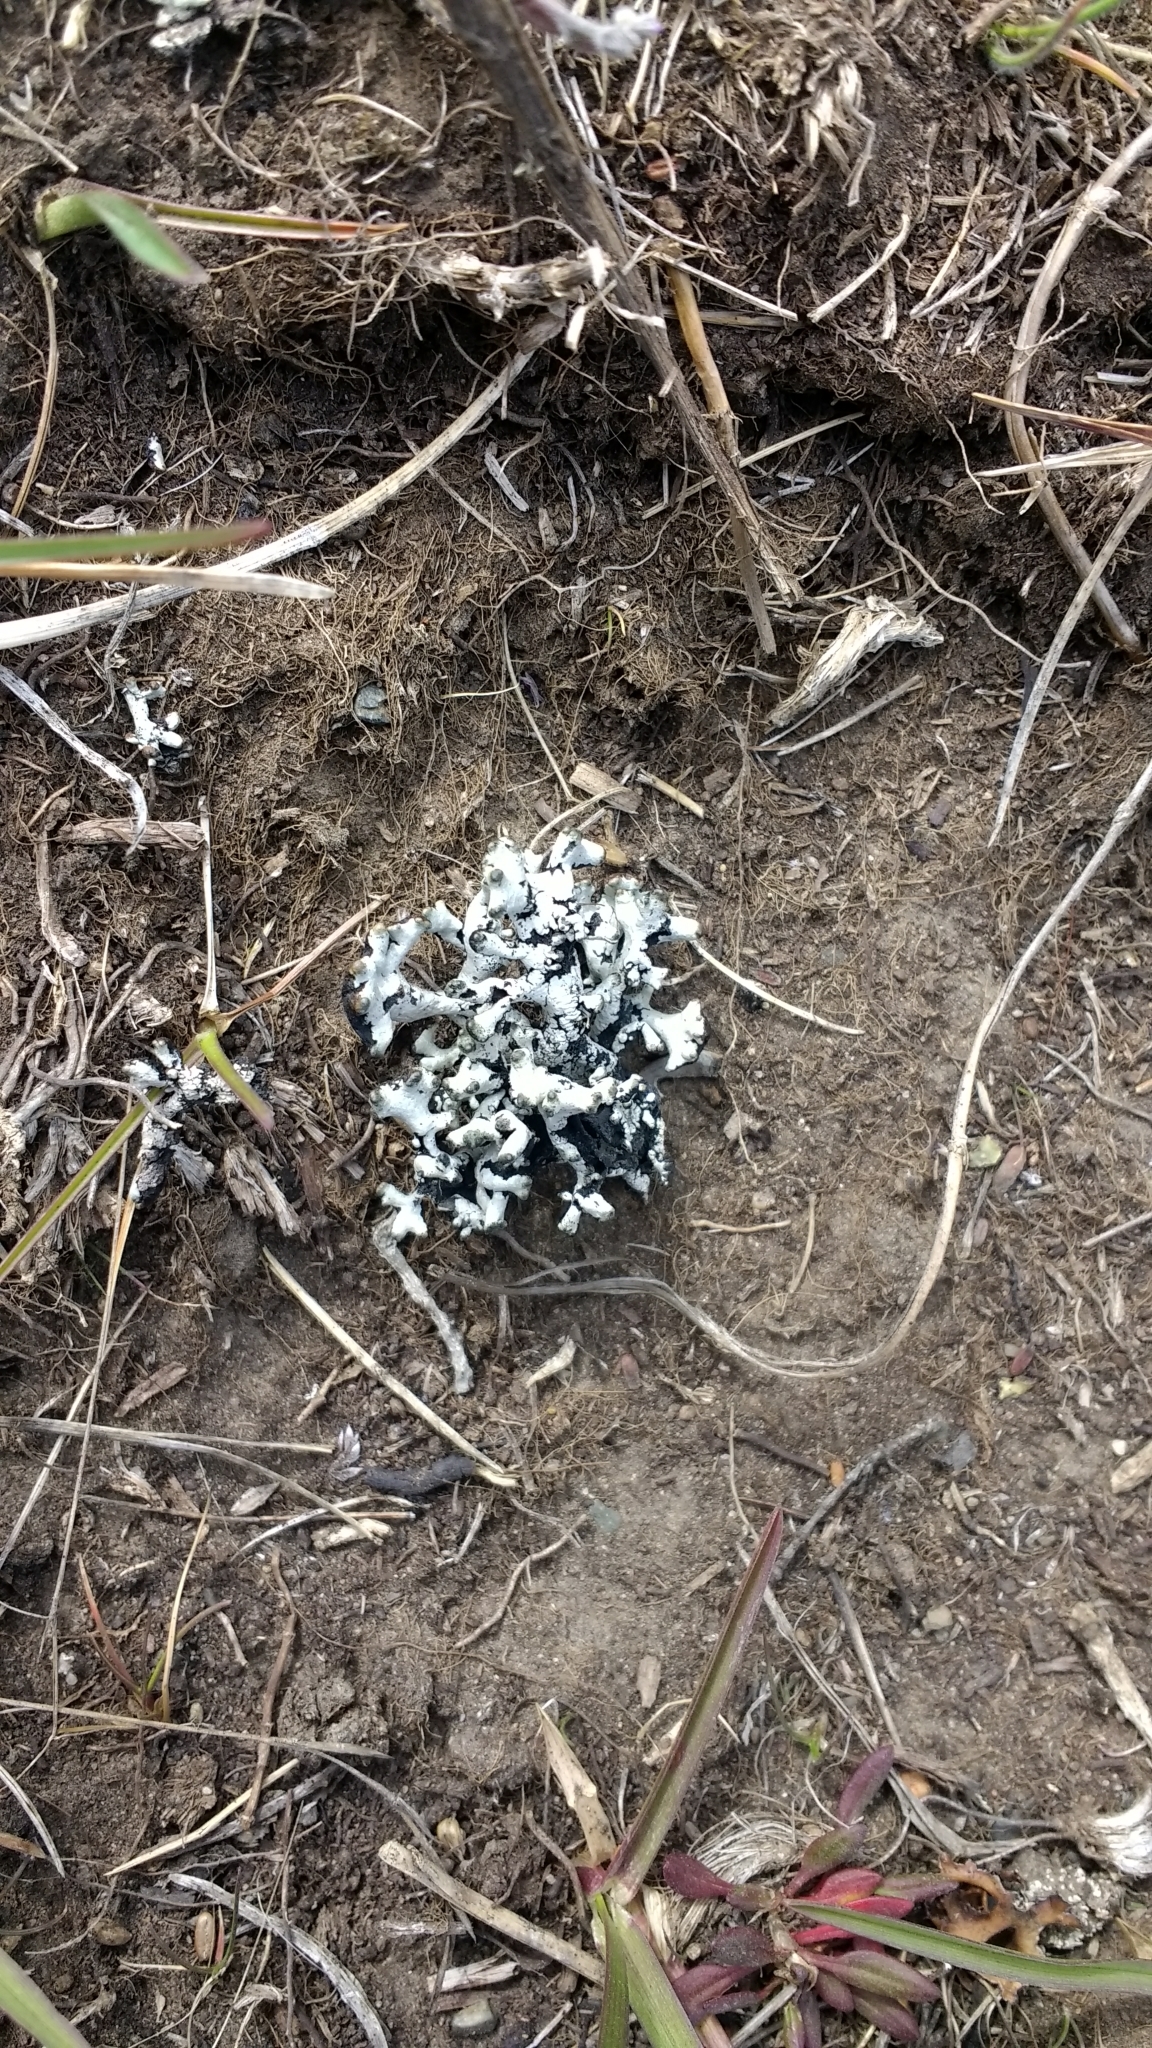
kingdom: Fungi
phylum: Ascomycota
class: Lecanoromycetes
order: Lecanorales
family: Parmeliaceae
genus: Hypogymnia
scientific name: Hypogymnia imshaugii
